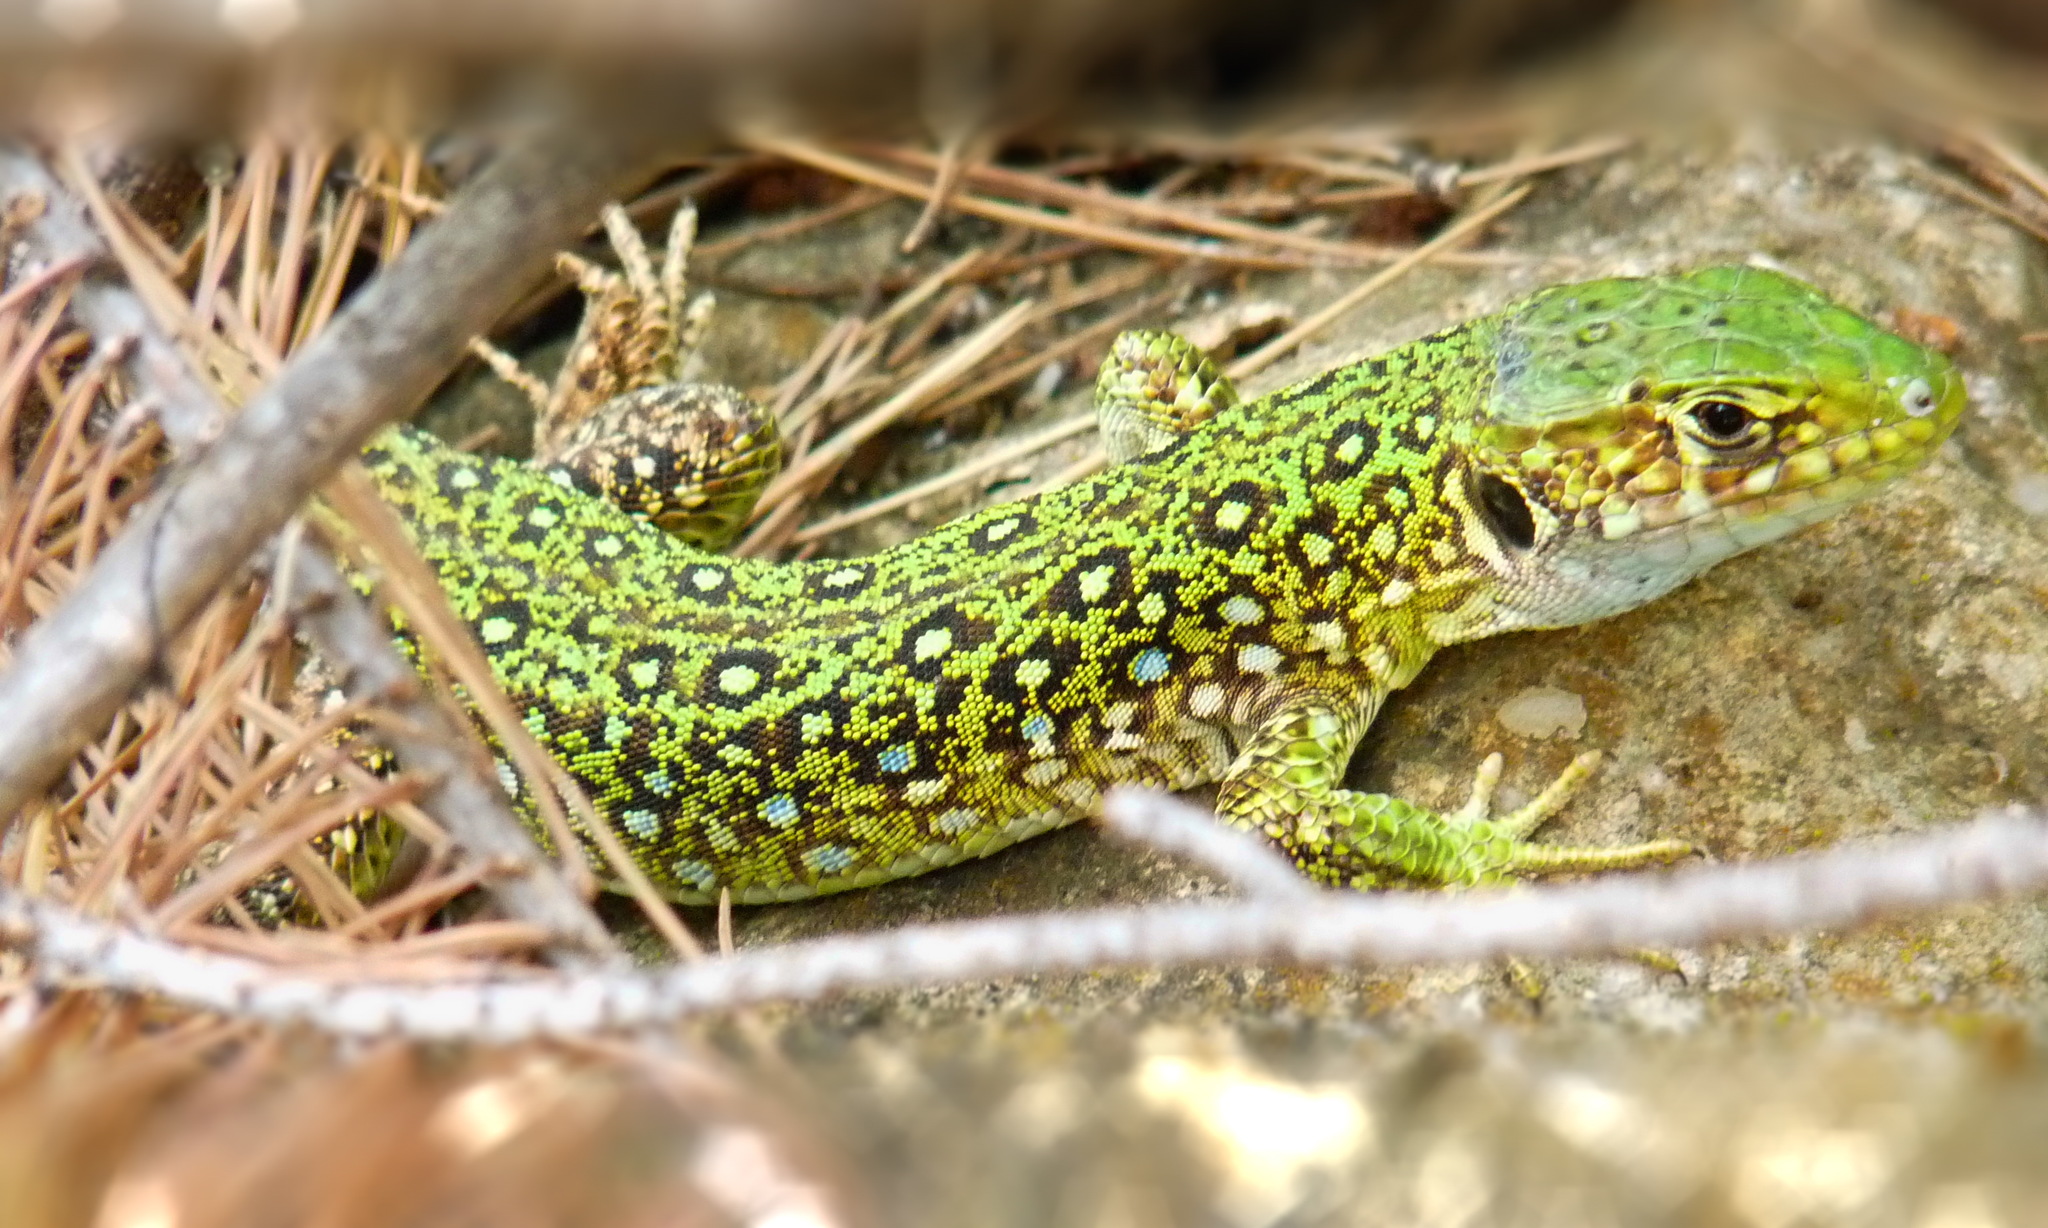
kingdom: Animalia
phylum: Chordata
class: Squamata
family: Lacertidae
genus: Timon
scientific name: Timon pater
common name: North african ocellated lizard
